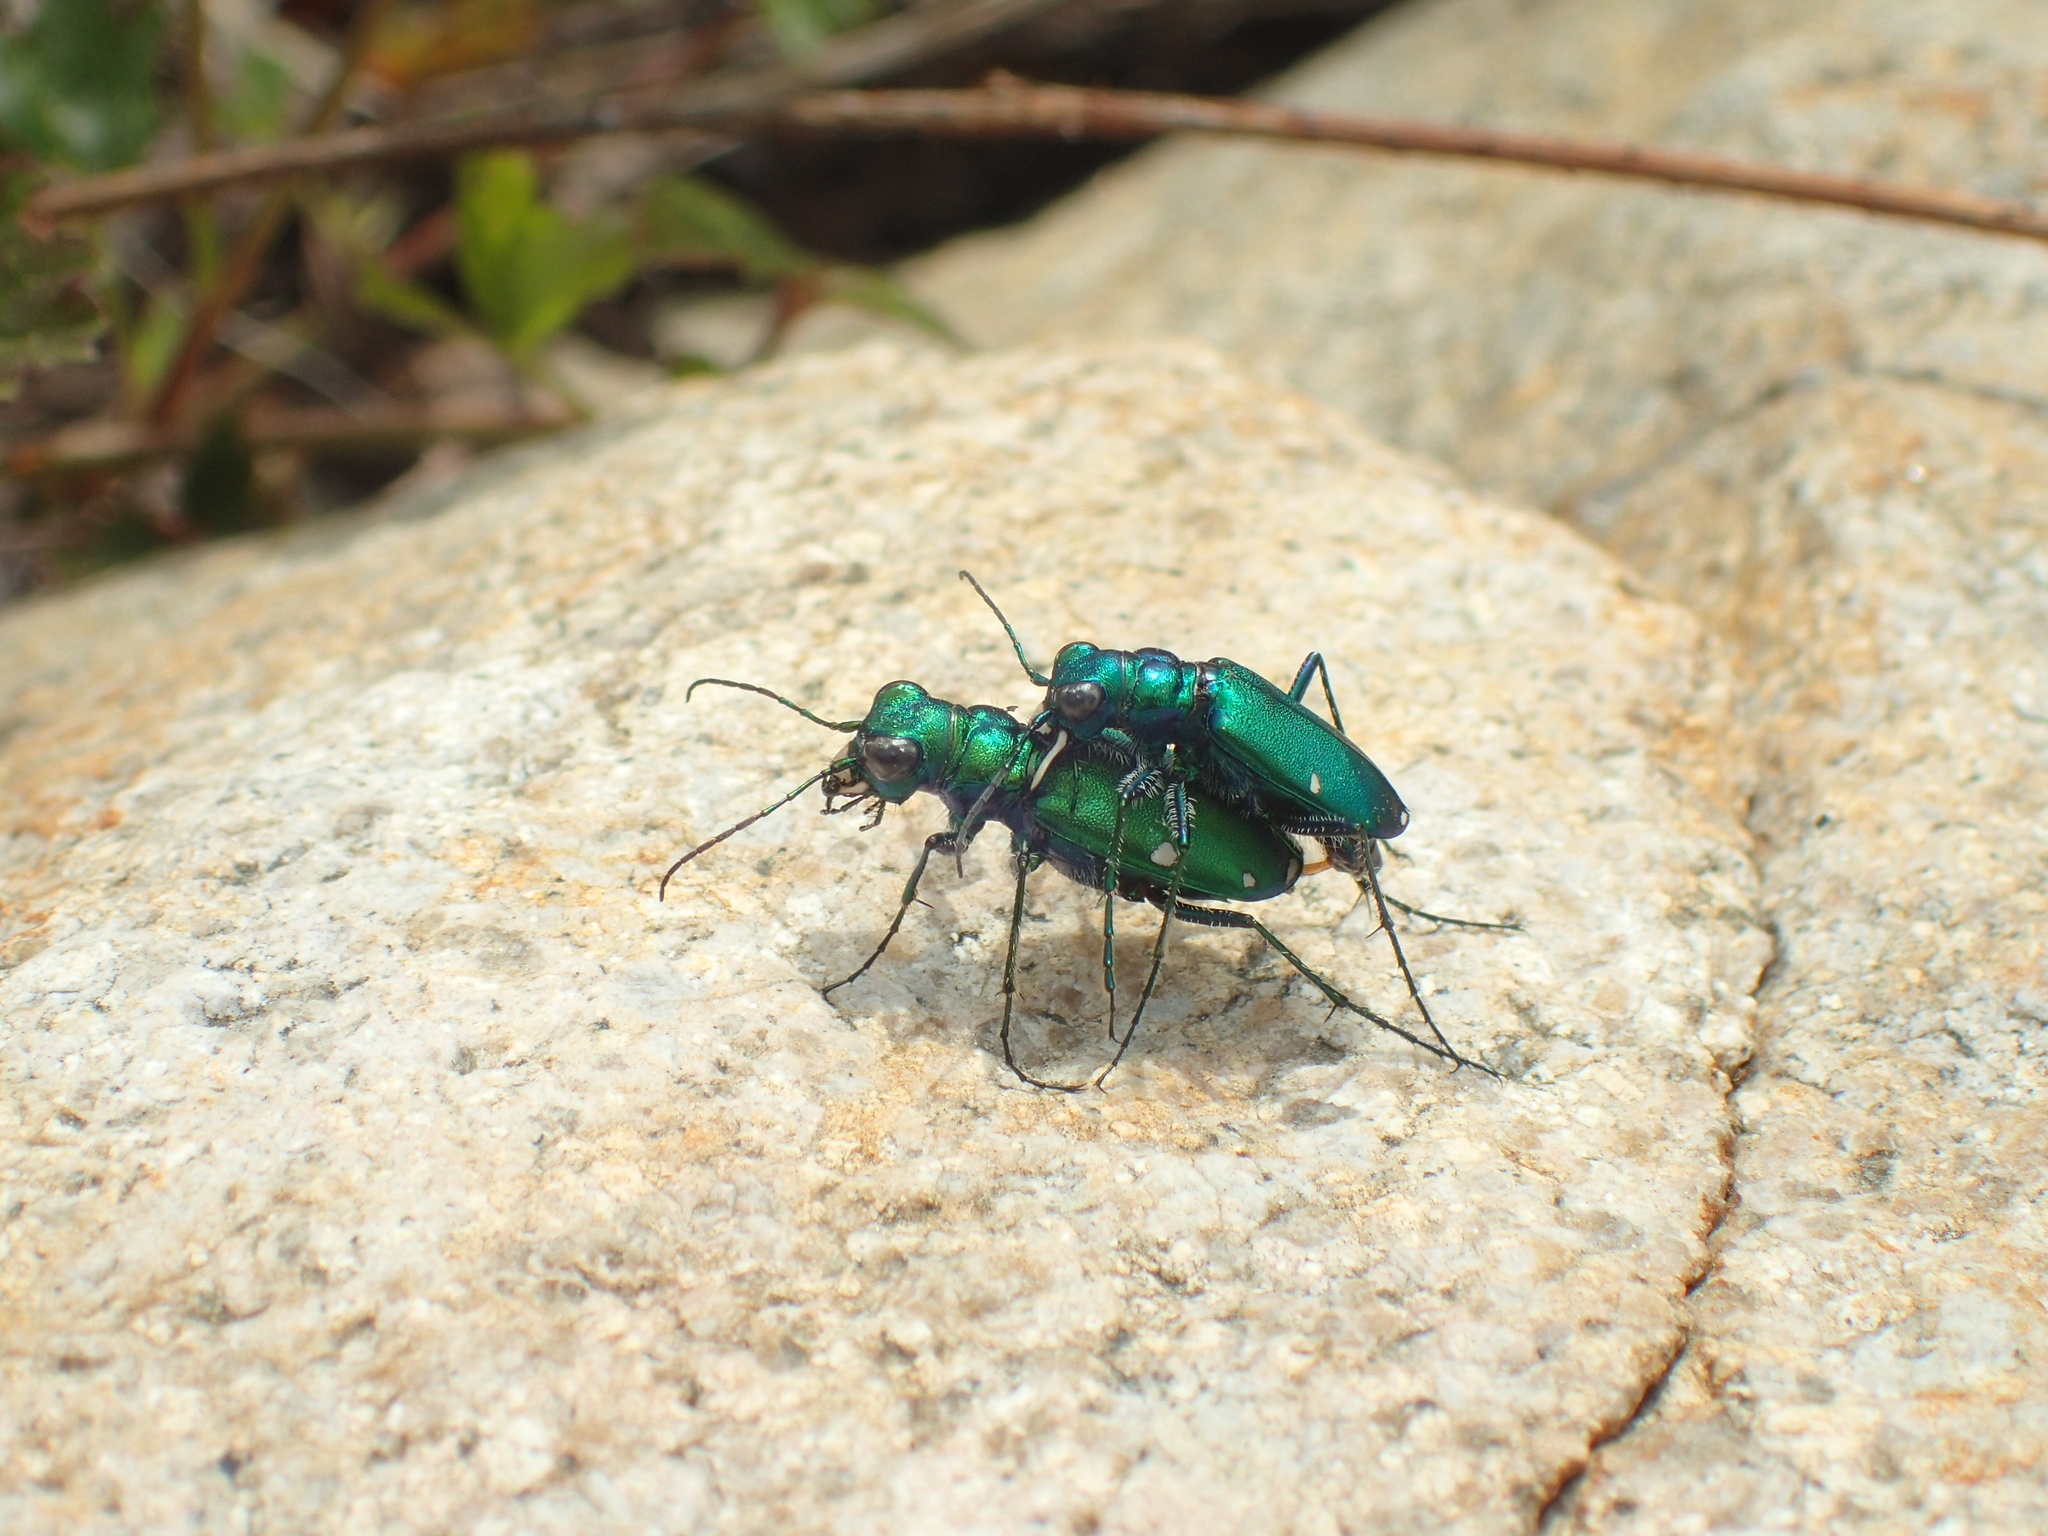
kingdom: Animalia
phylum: Arthropoda
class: Insecta
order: Coleoptera
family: Carabidae
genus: Cicindela
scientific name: Cicindela sexguttata
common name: Six-spotted tiger beetle
